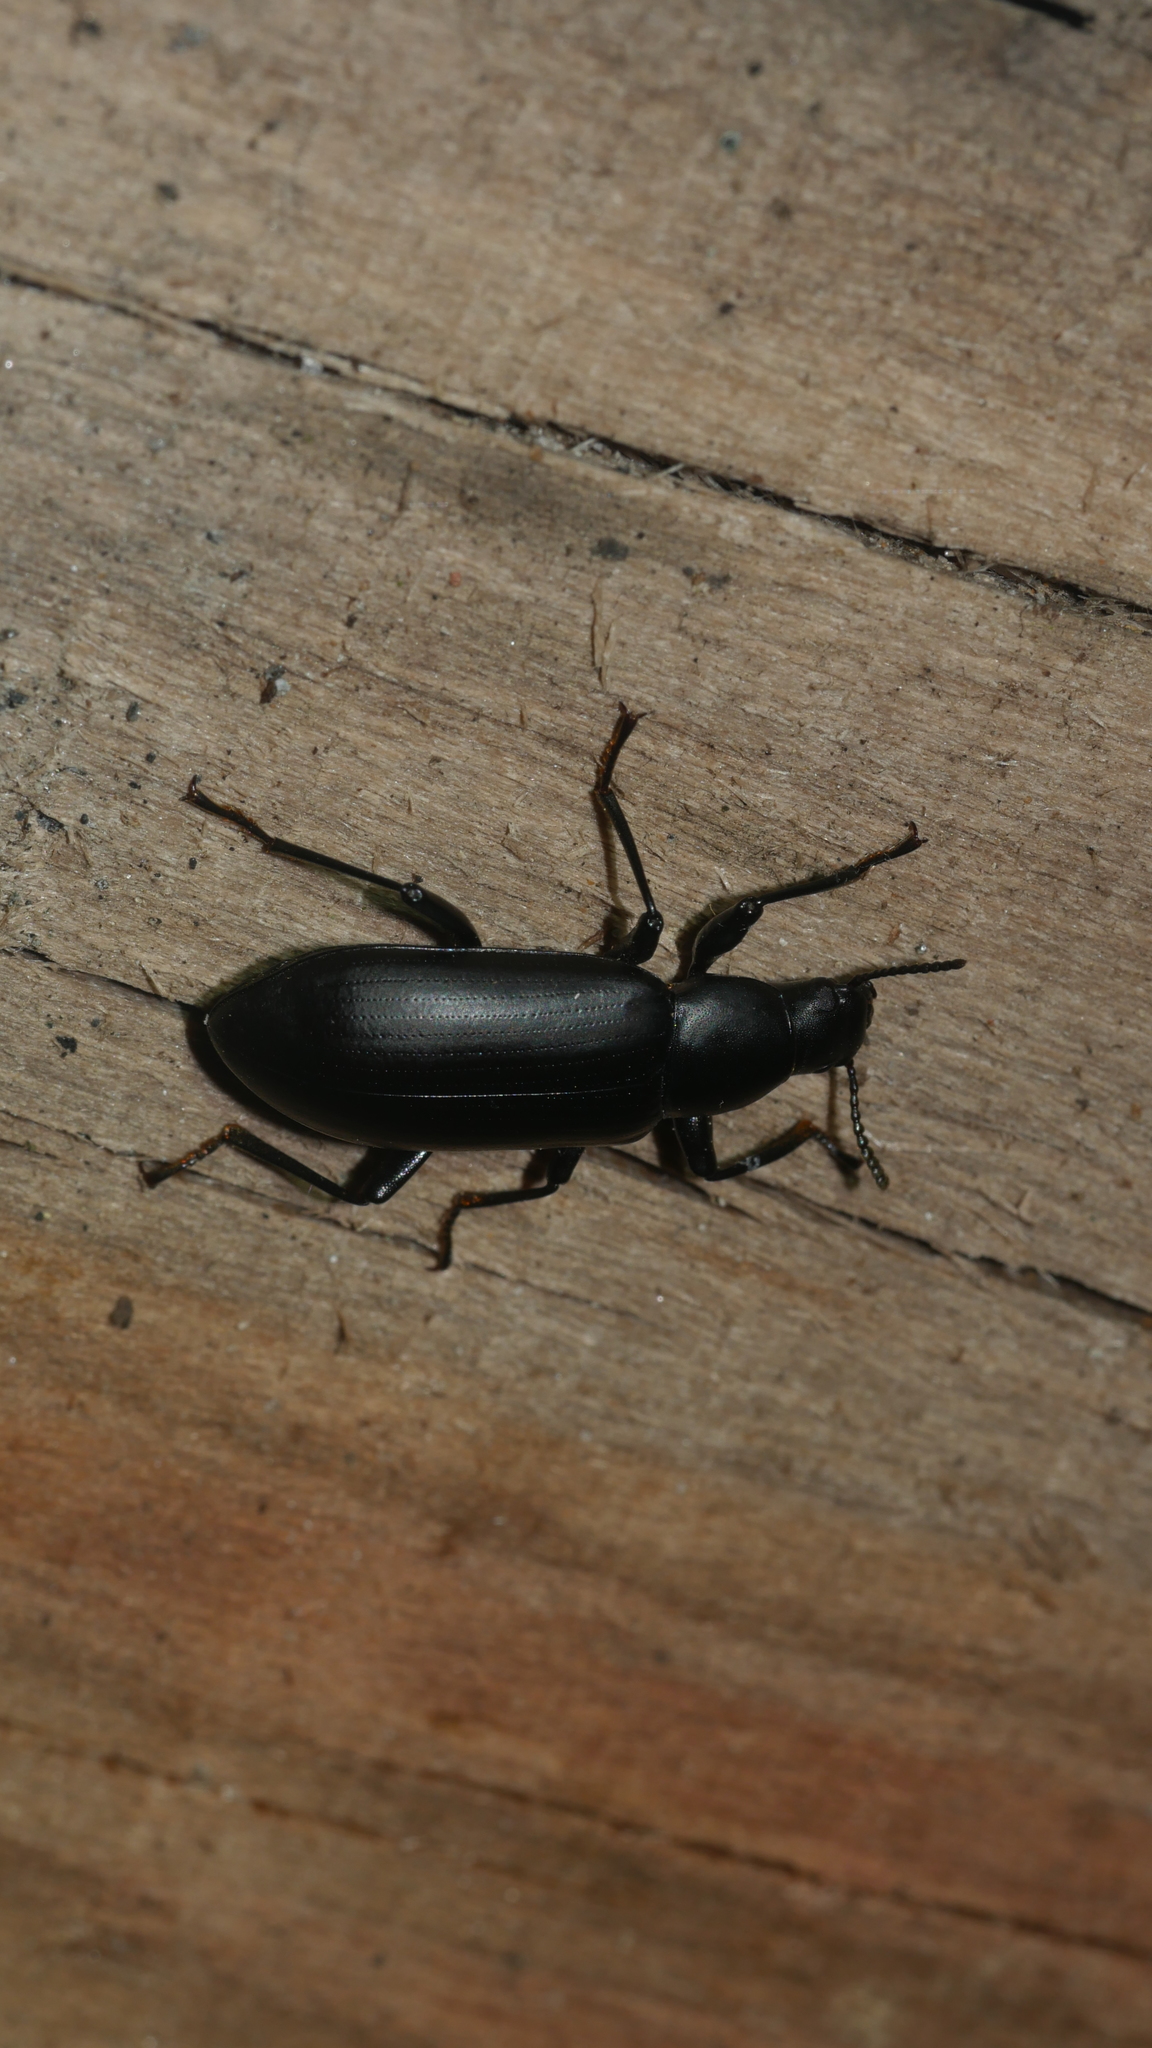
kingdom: Animalia
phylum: Arthropoda
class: Insecta
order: Coleoptera
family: Tenebrionidae
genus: Alobates
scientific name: Alobates
